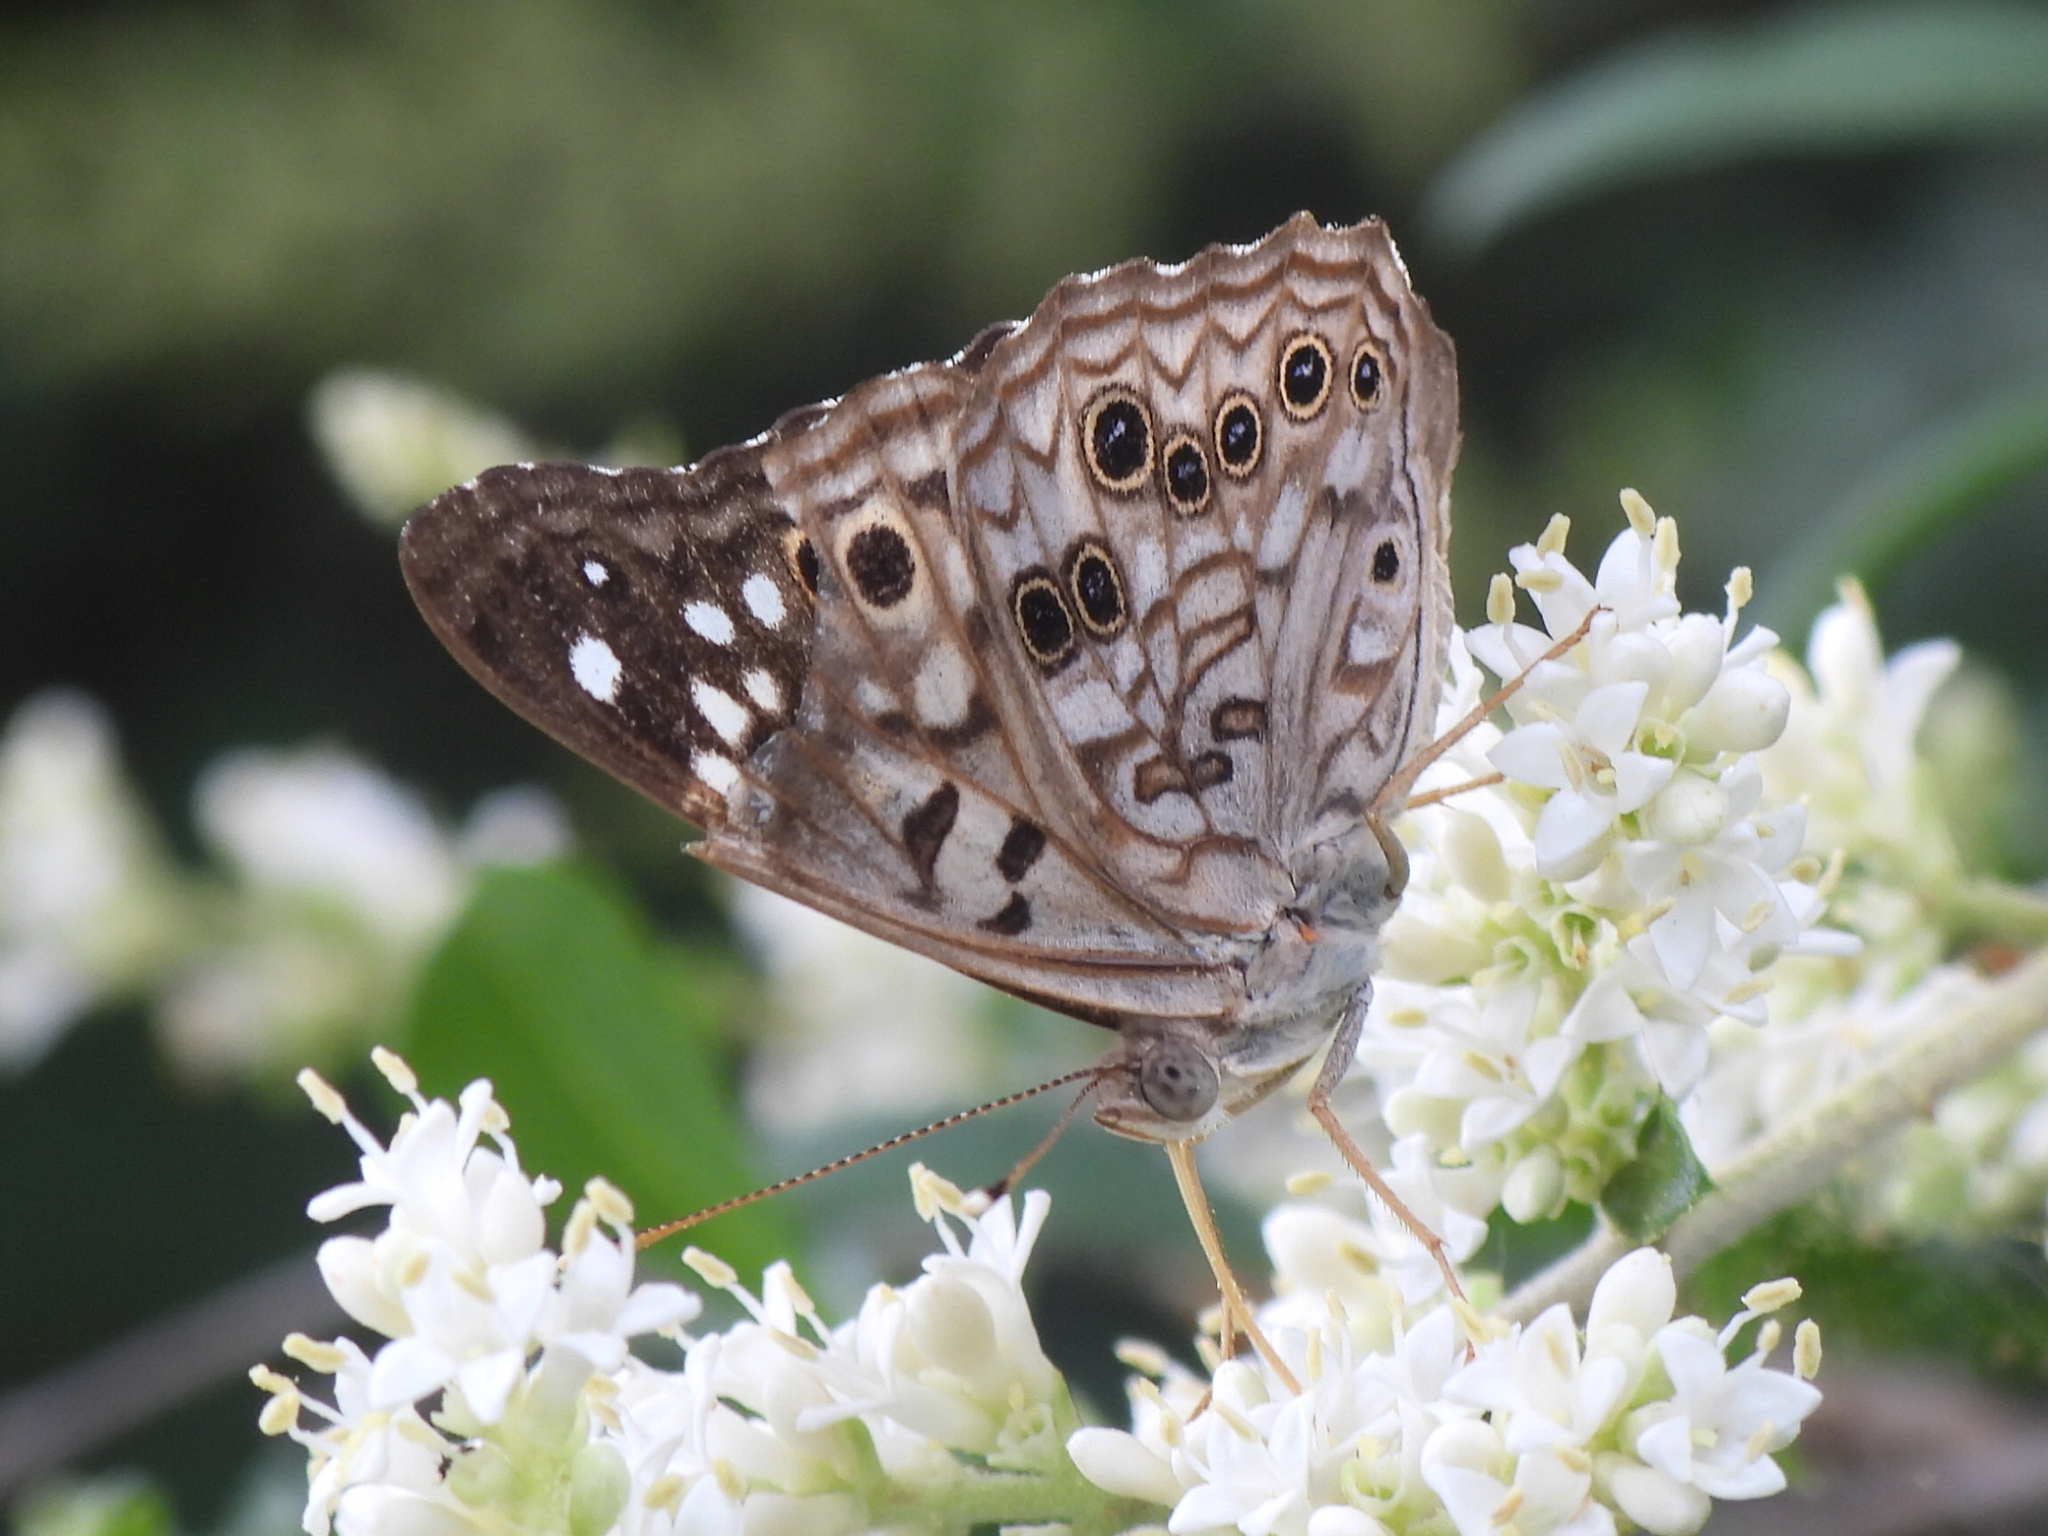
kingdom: Animalia
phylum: Arthropoda
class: Insecta
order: Lepidoptera
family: Nymphalidae
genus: Asterocampa
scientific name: Asterocampa celtis
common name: Hackberry emperor
